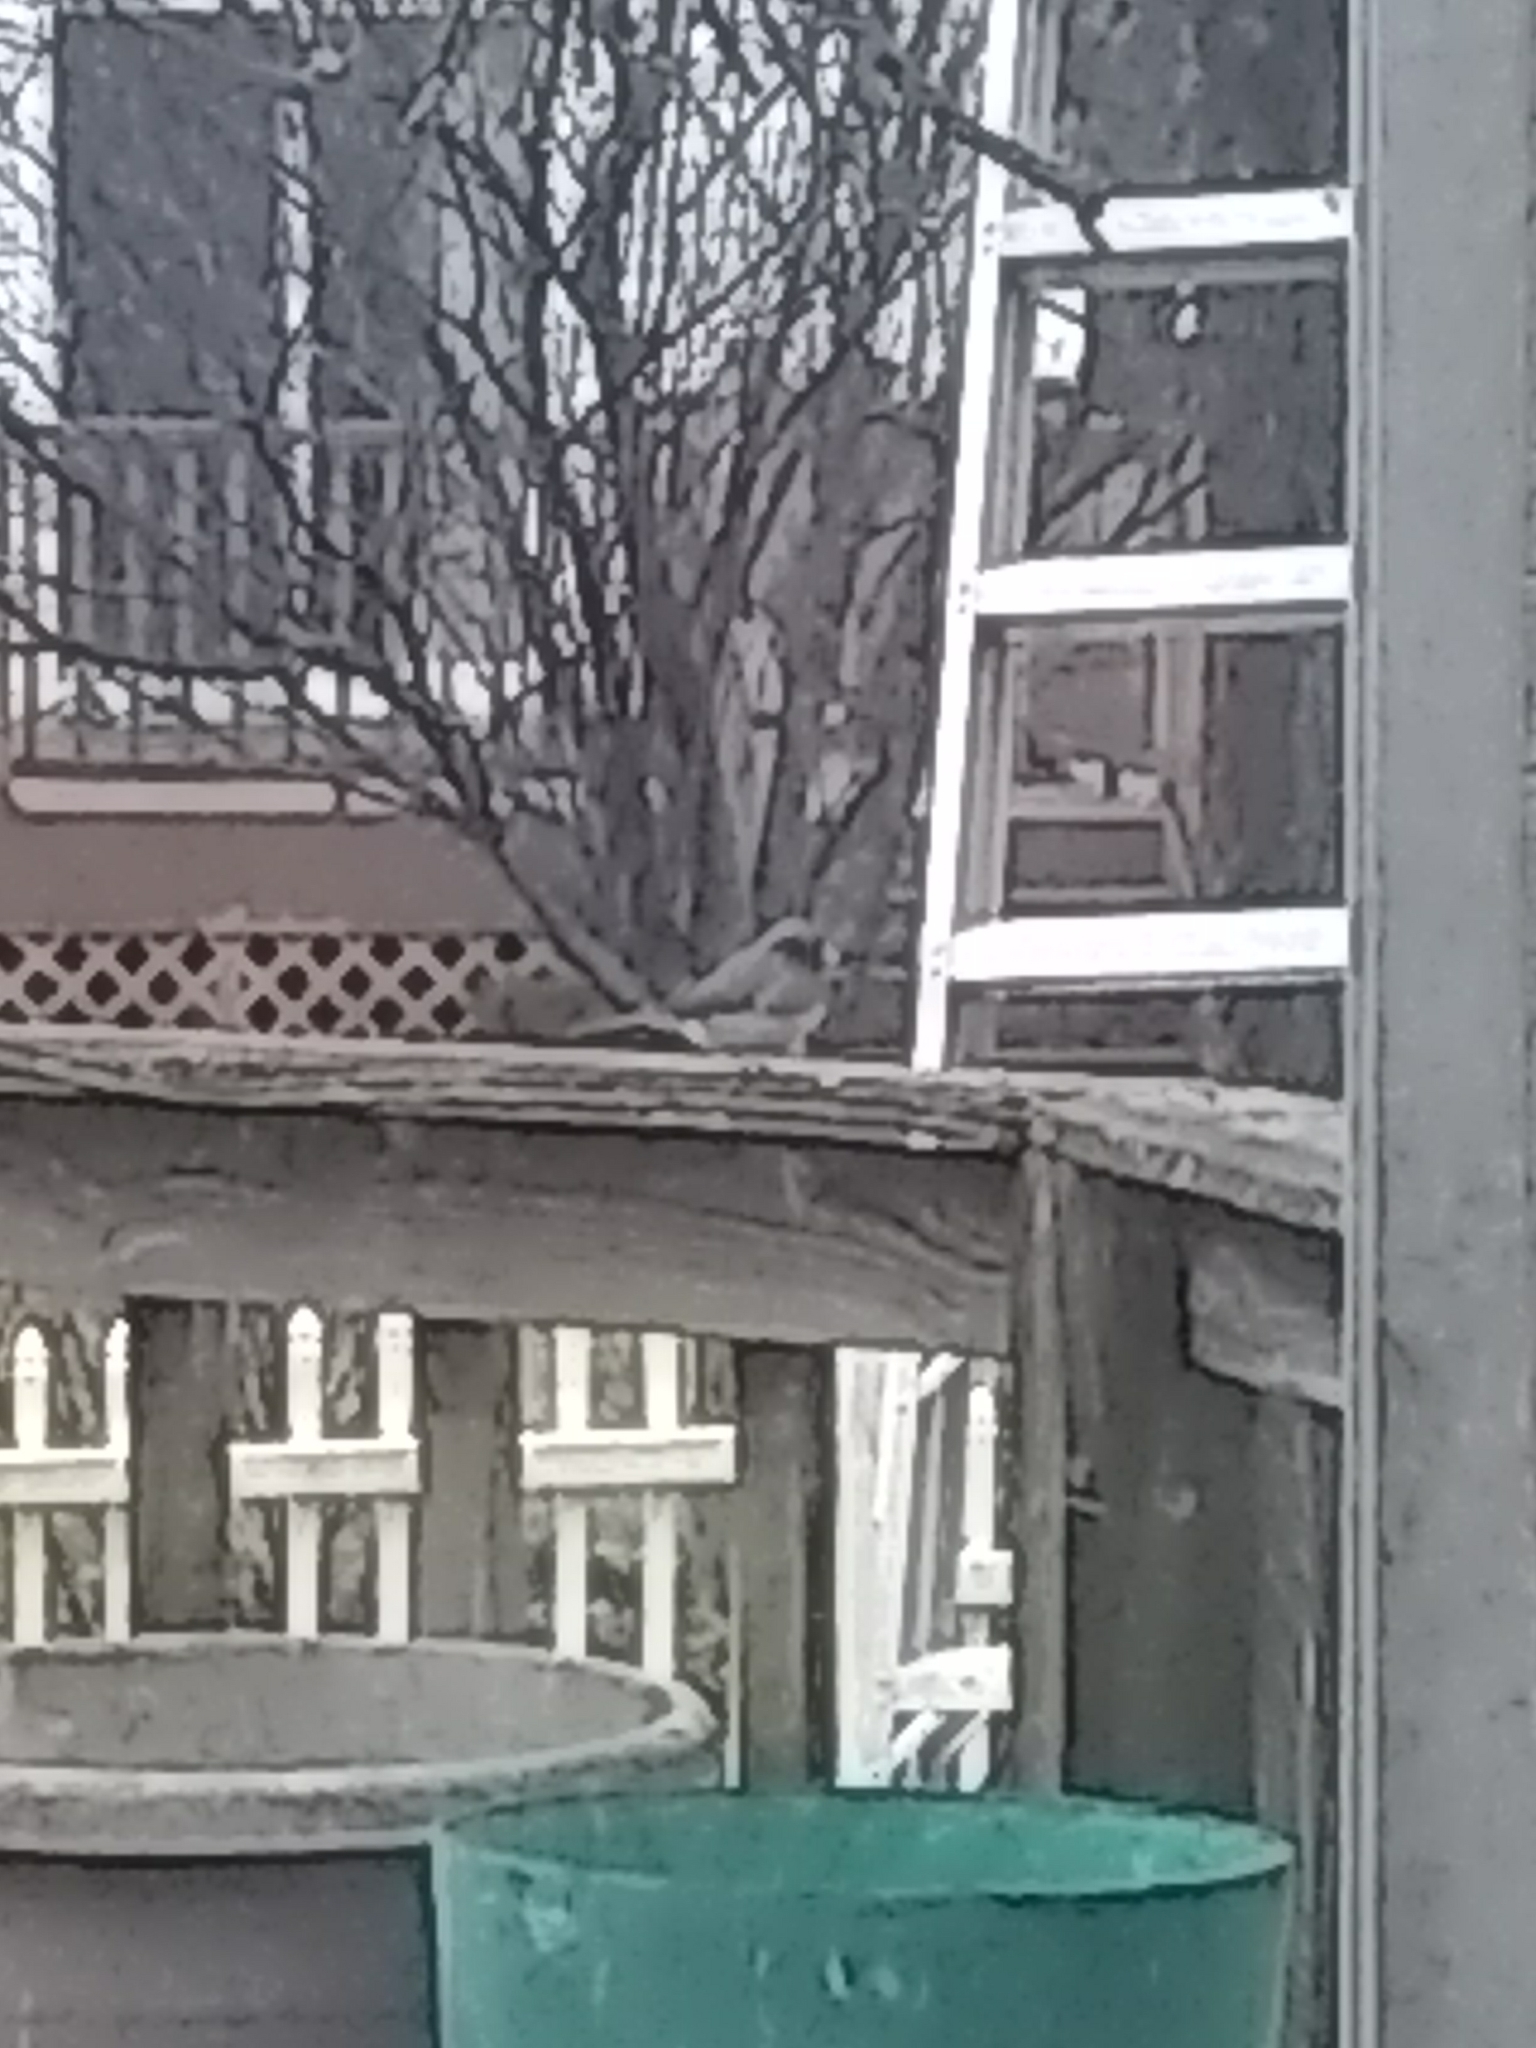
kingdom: Animalia
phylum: Chordata
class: Aves
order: Passeriformes
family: Passerellidae
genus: Junco
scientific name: Junco hyemalis
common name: Dark-eyed junco
